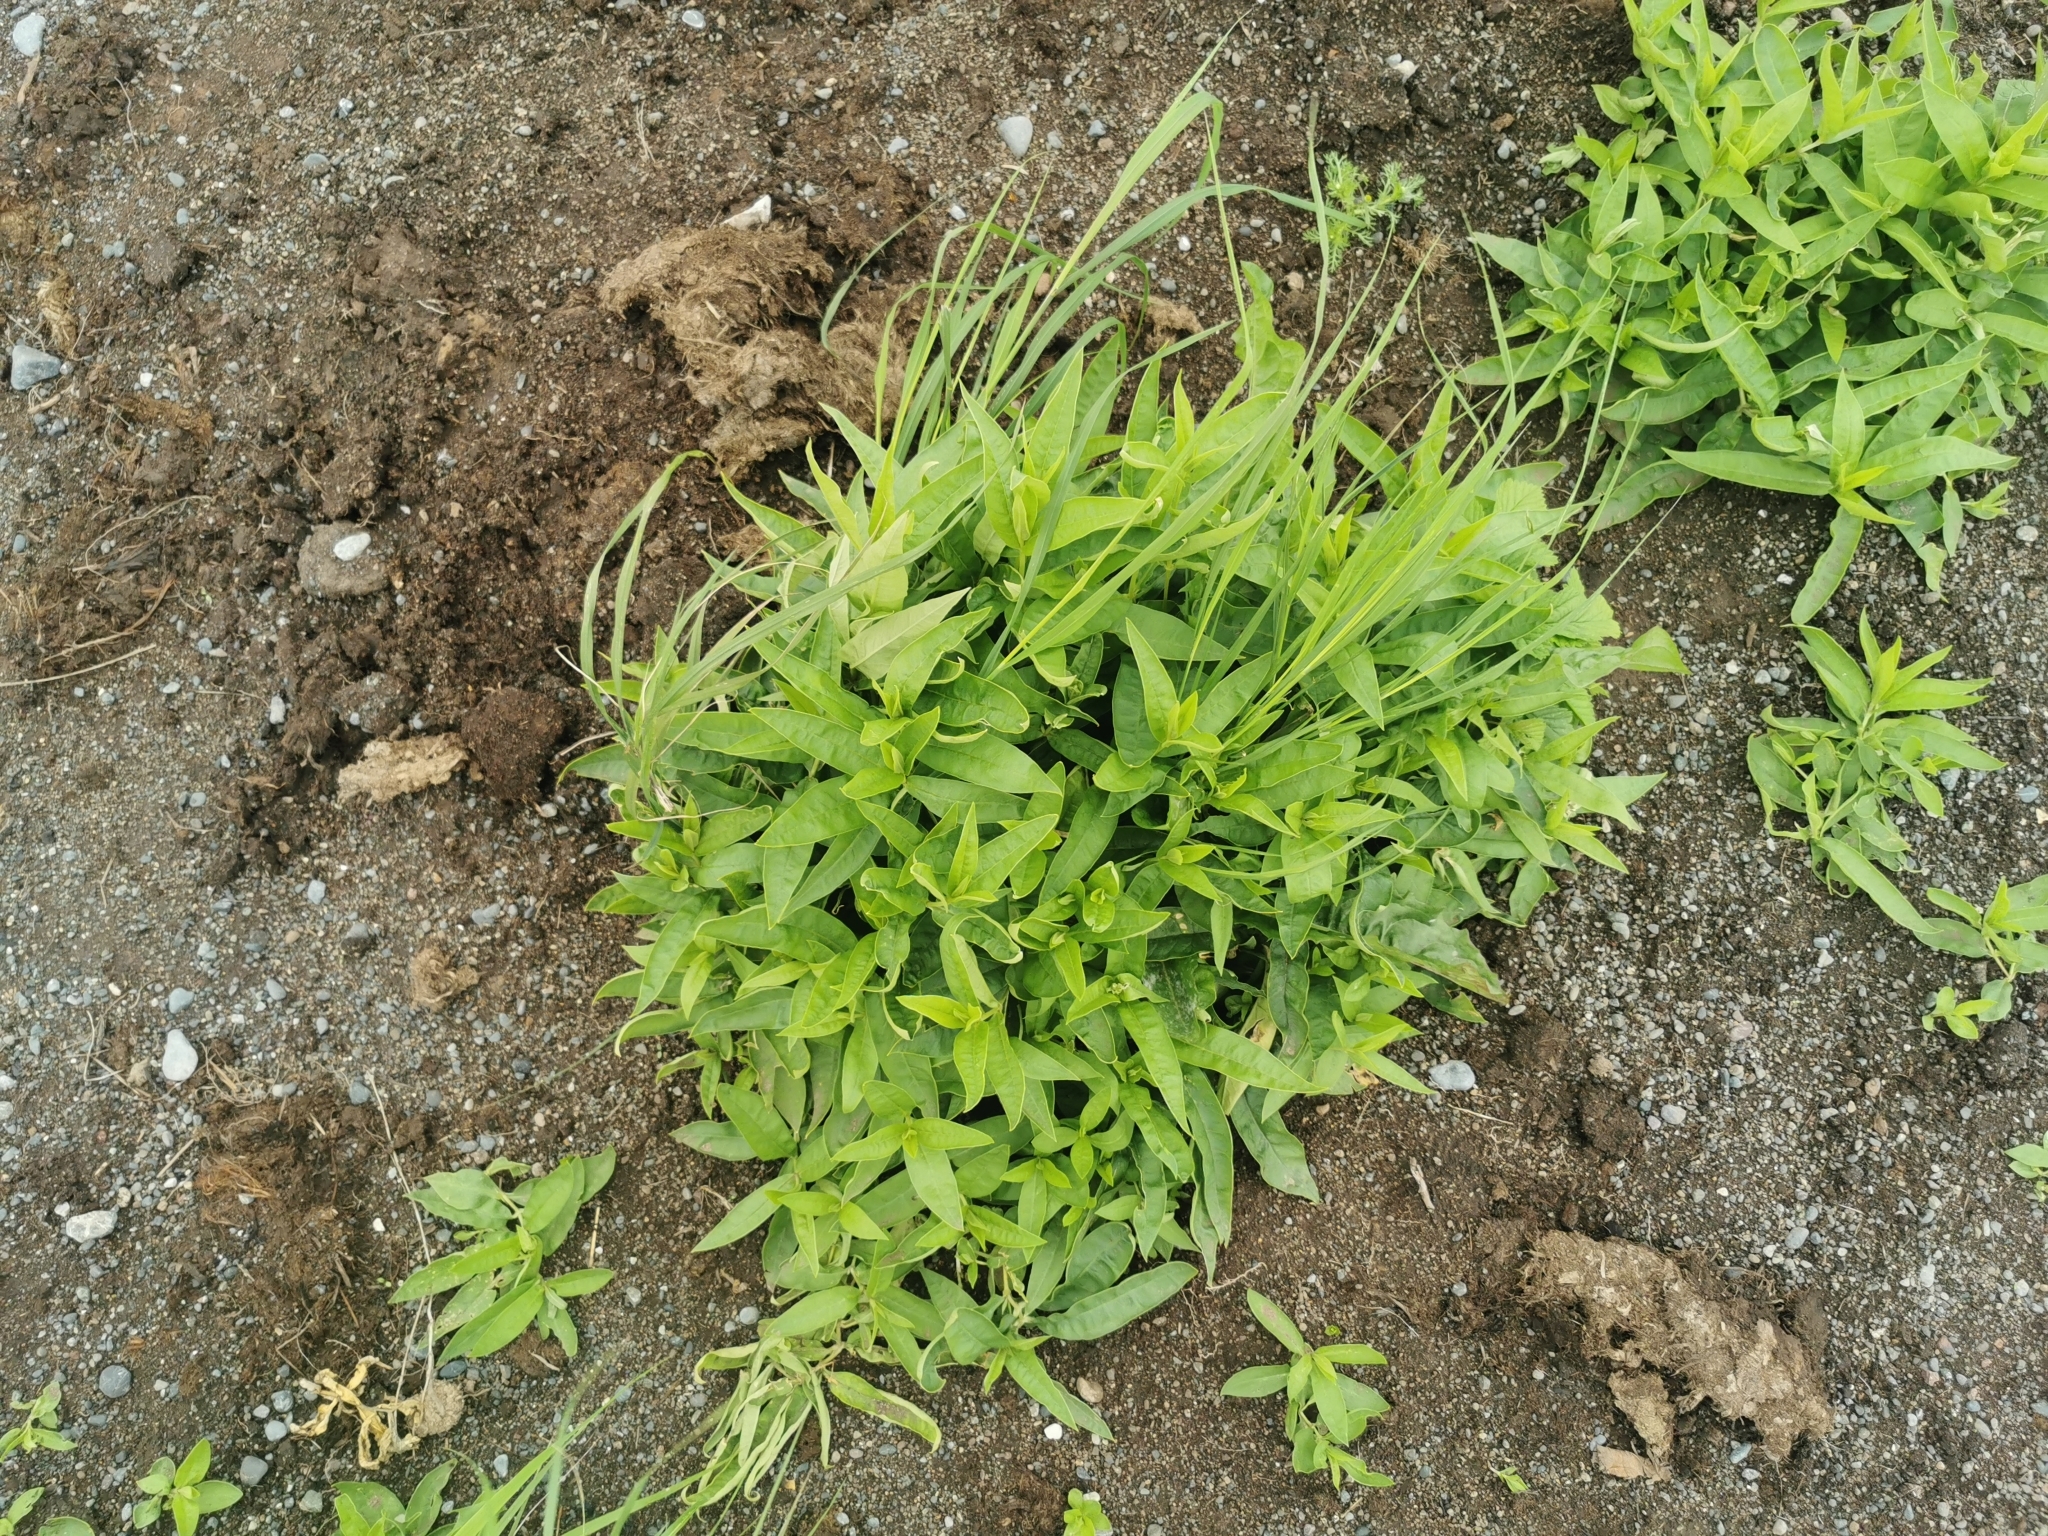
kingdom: Plantae
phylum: Tracheophyta
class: Magnoliopsida
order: Caryophyllales
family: Caryophyllaceae
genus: Stellaria
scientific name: Stellaria radians
